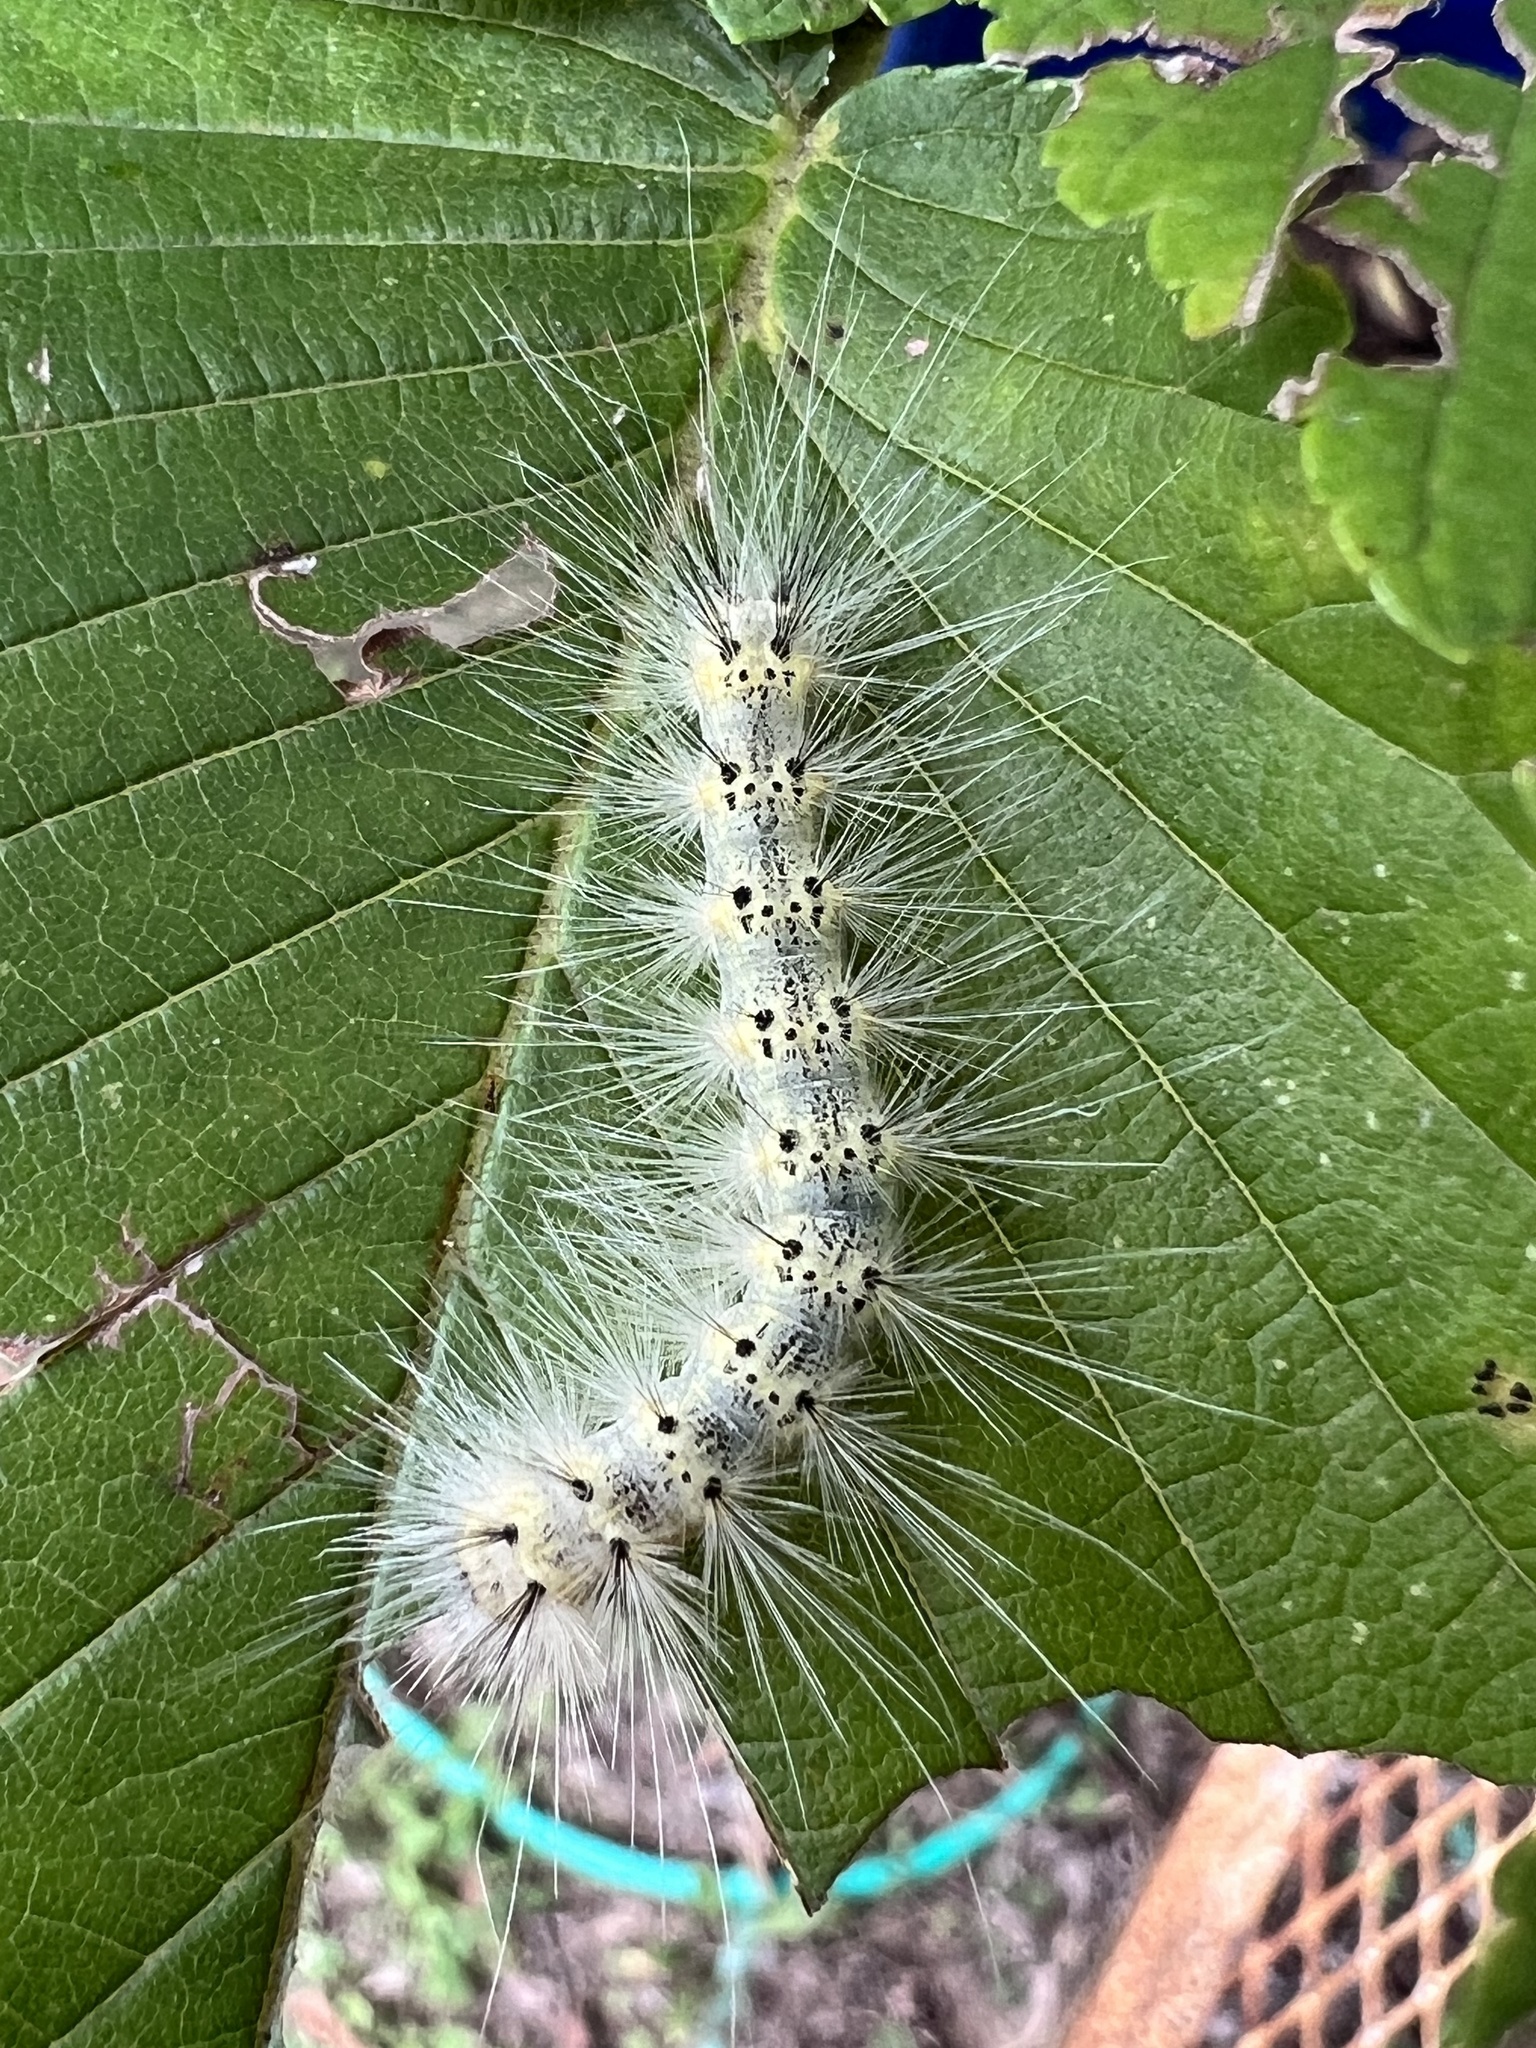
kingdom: Animalia
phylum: Arthropoda
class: Insecta
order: Lepidoptera
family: Erebidae
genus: Hyphantria
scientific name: Hyphantria cunea
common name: American white moth
